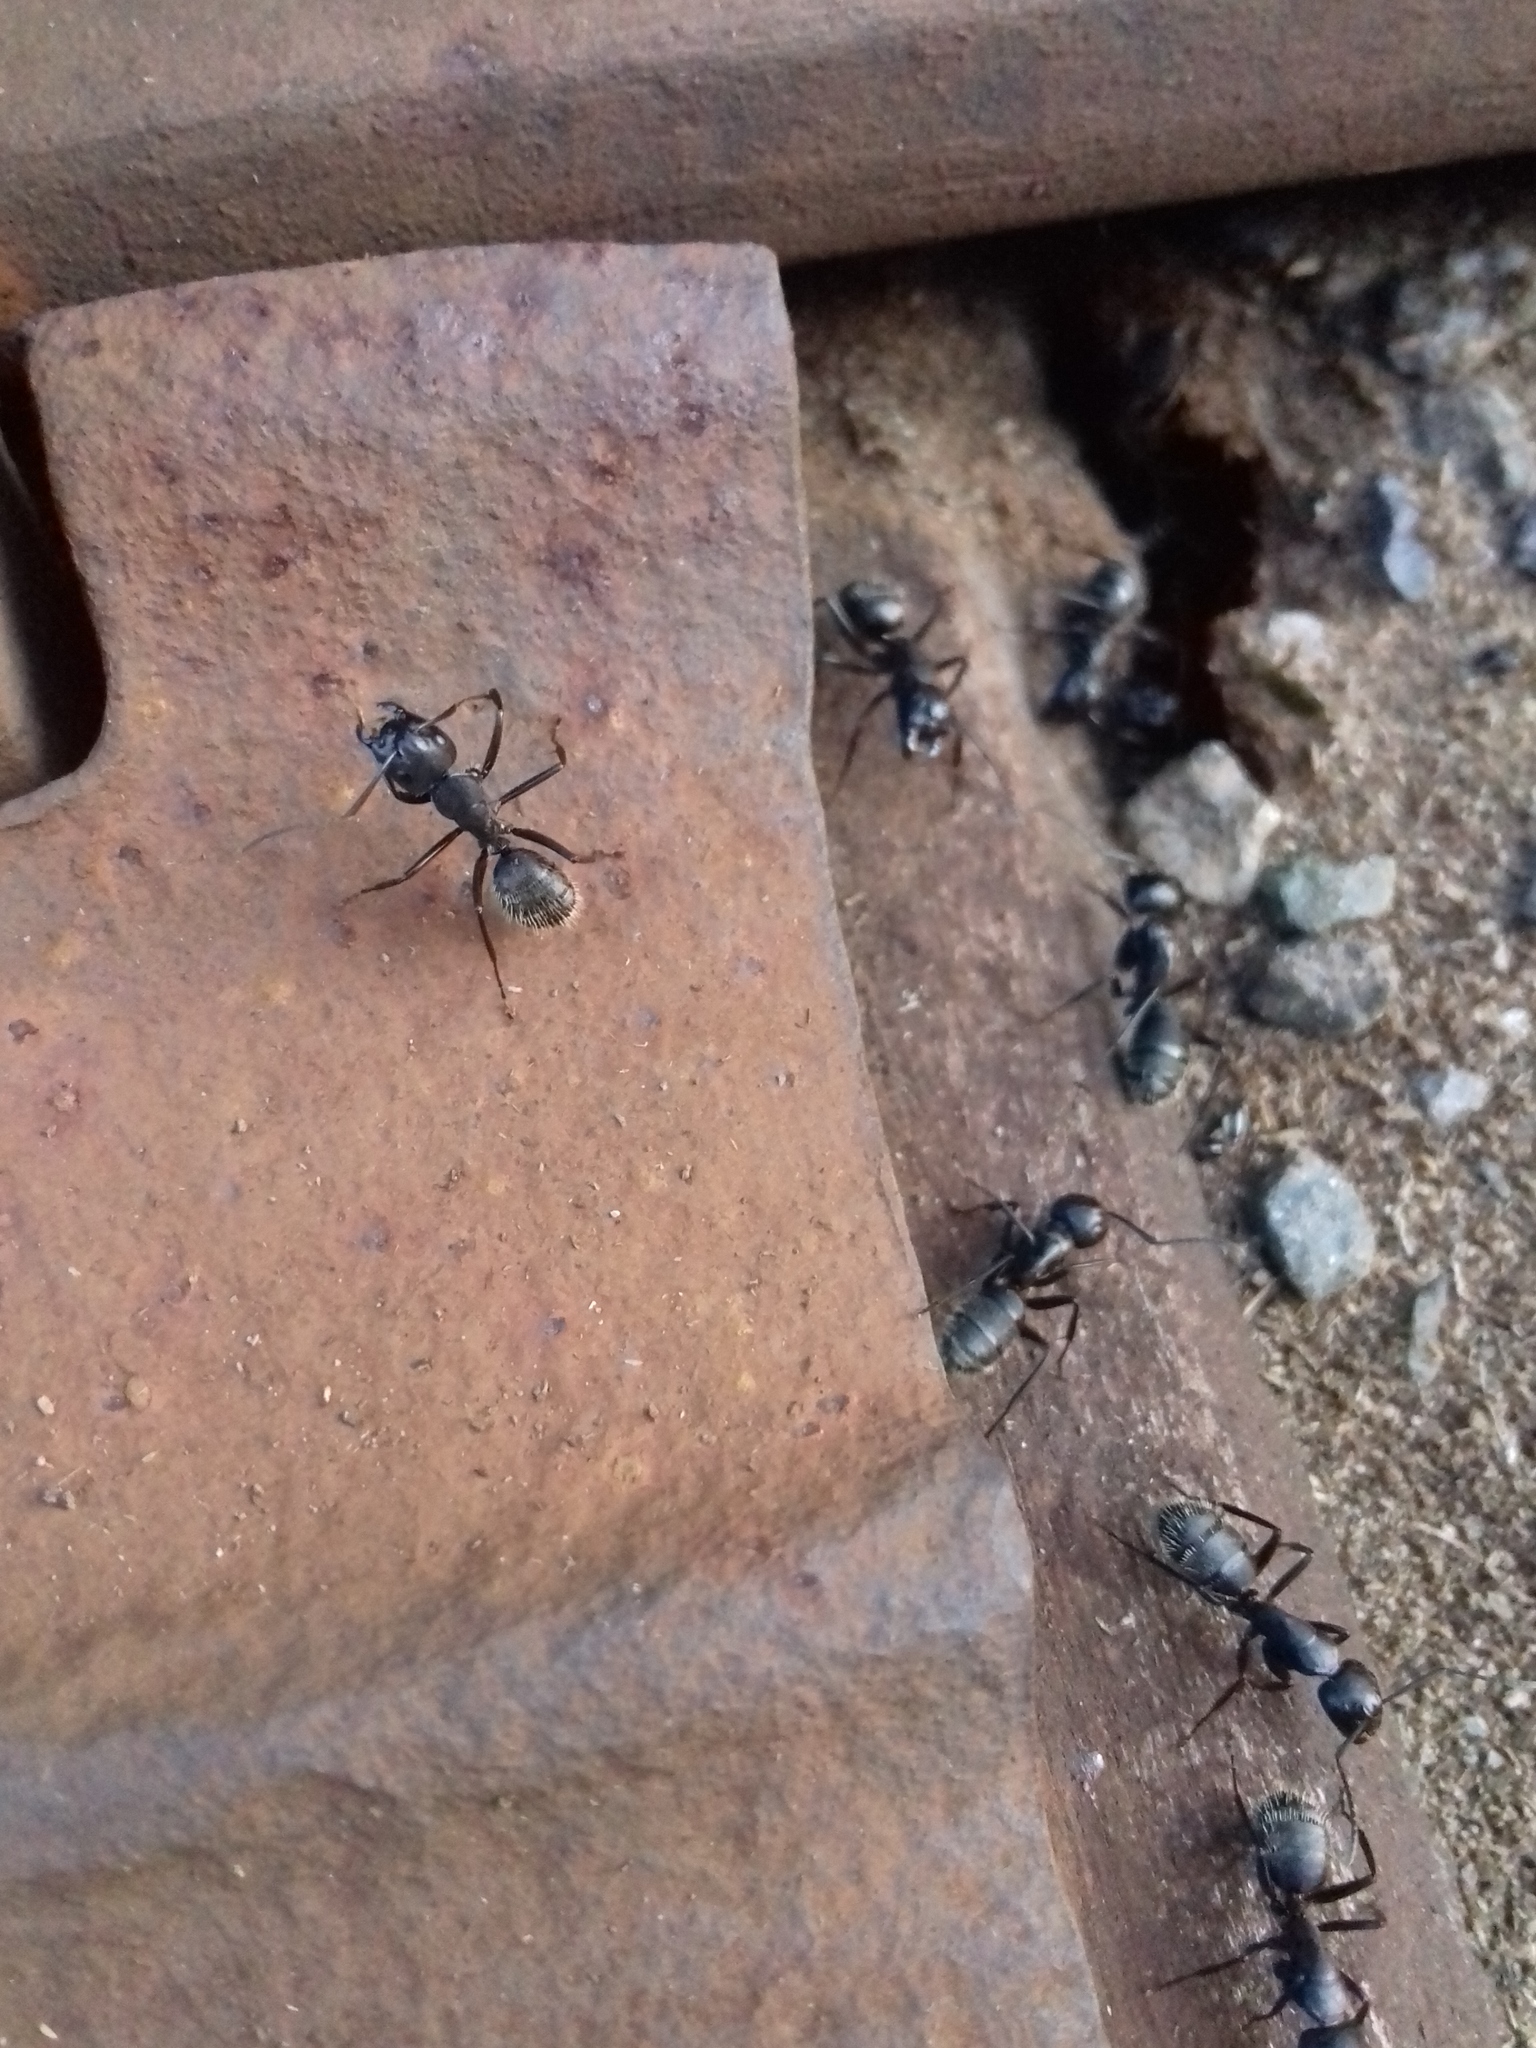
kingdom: Animalia
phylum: Arthropoda
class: Insecta
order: Hymenoptera
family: Formicidae
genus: Camponotus
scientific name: Camponotus vagus
